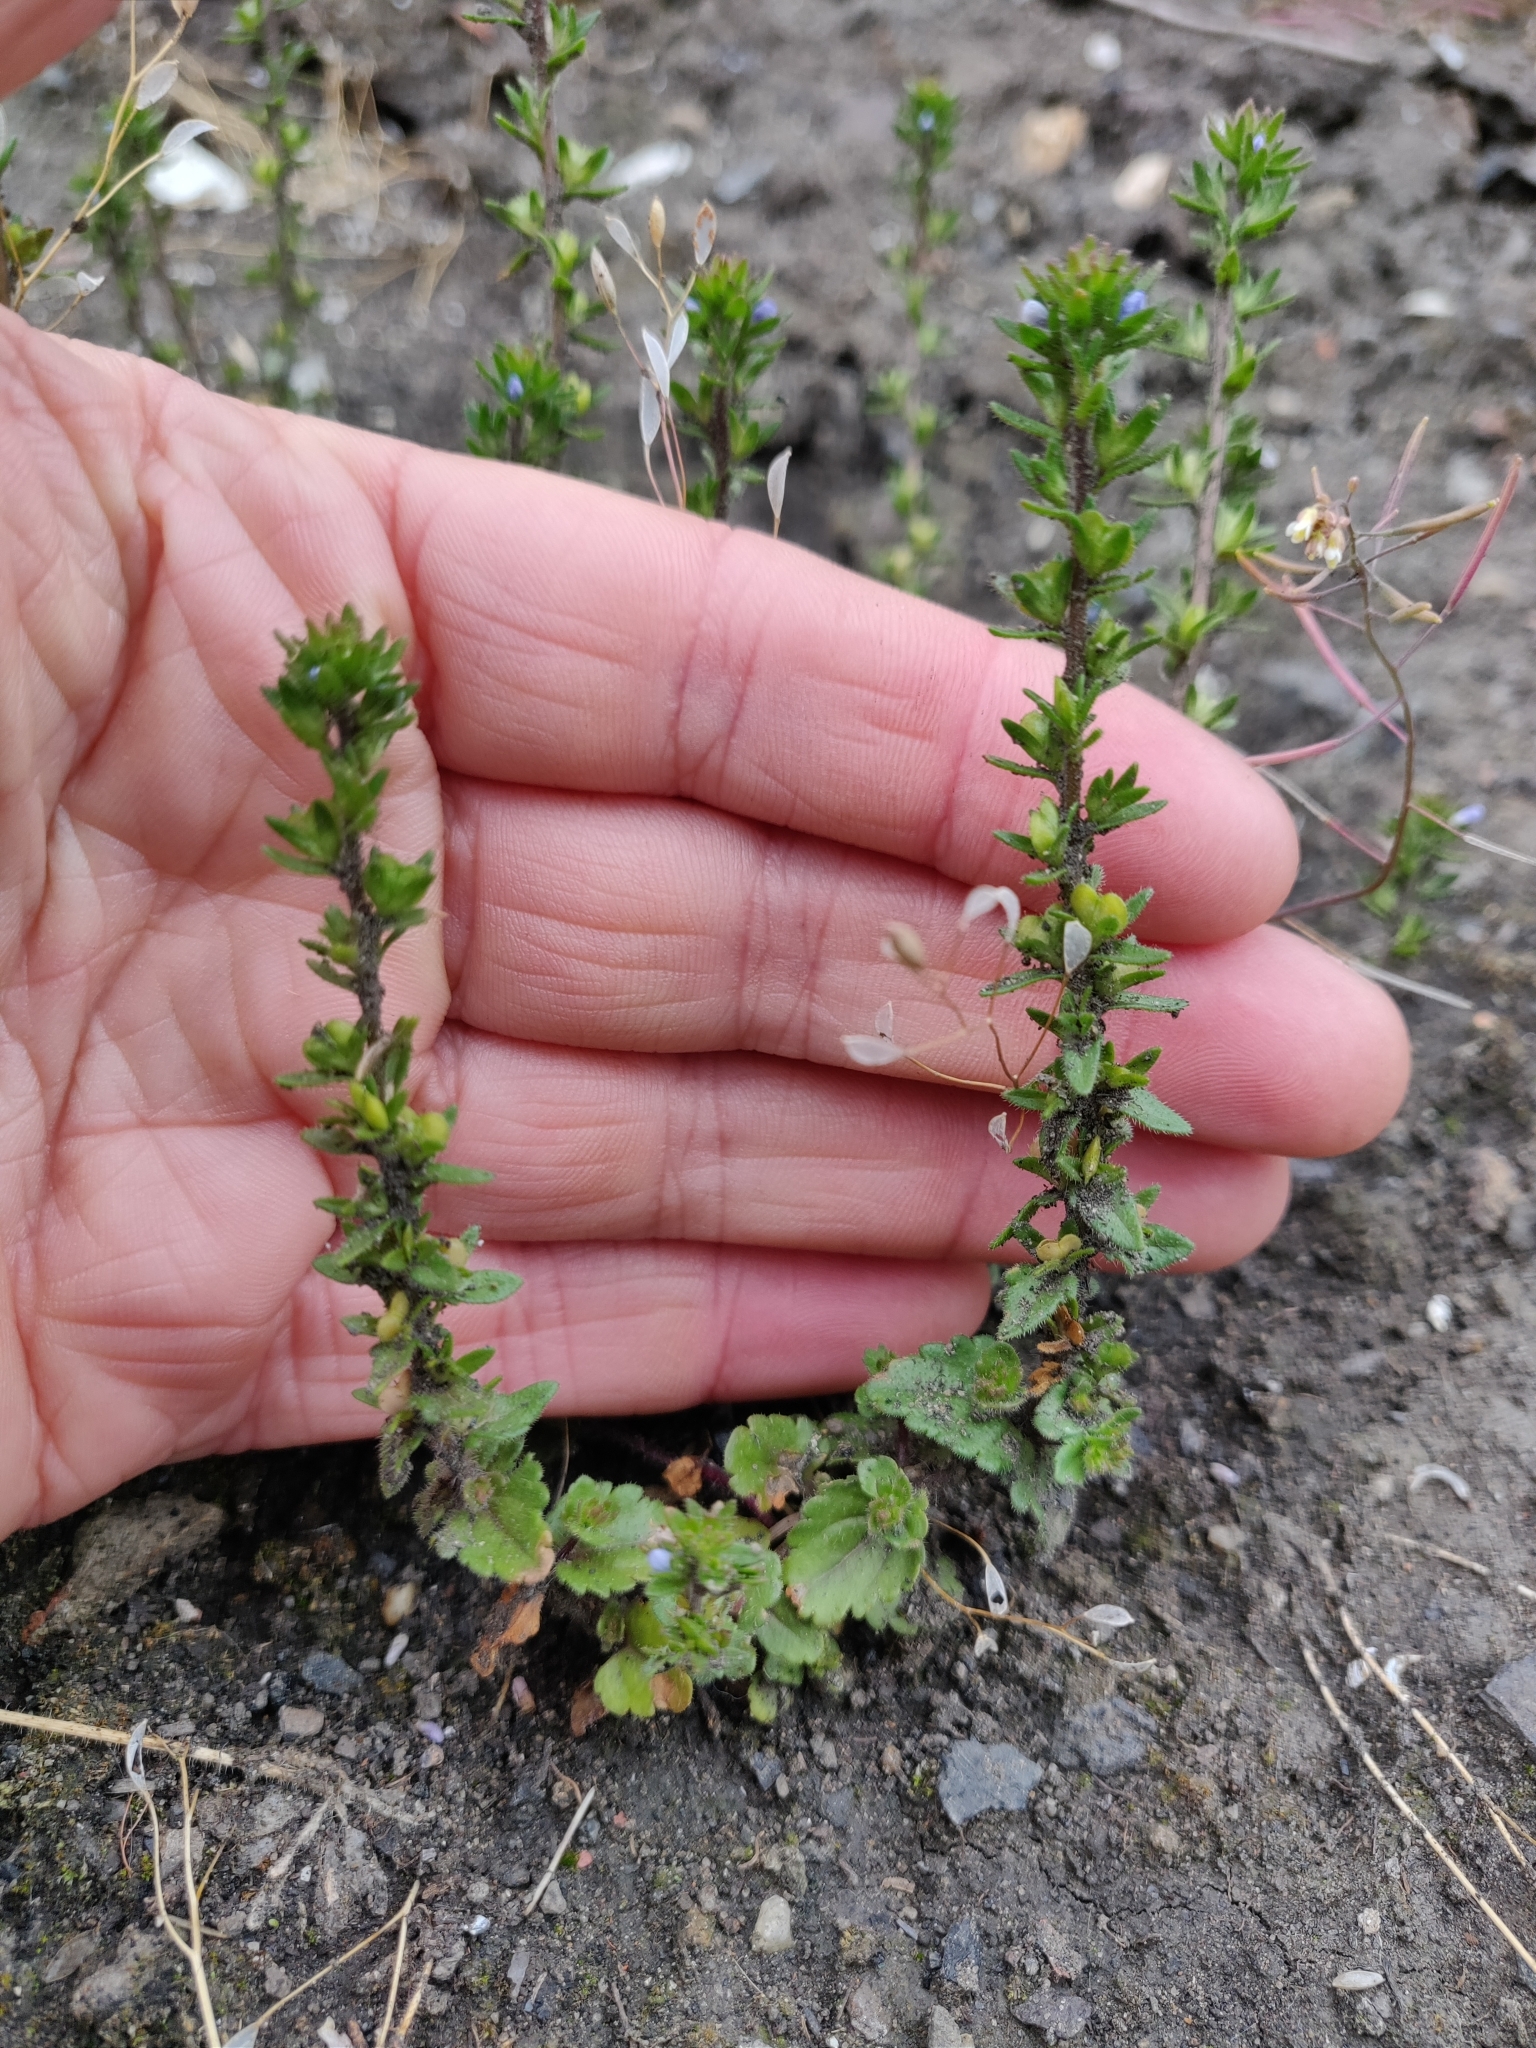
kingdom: Plantae
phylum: Tracheophyta
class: Magnoliopsida
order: Lamiales
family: Plantaginaceae
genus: Veronica
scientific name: Veronica arvensis
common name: Corn speedwell
